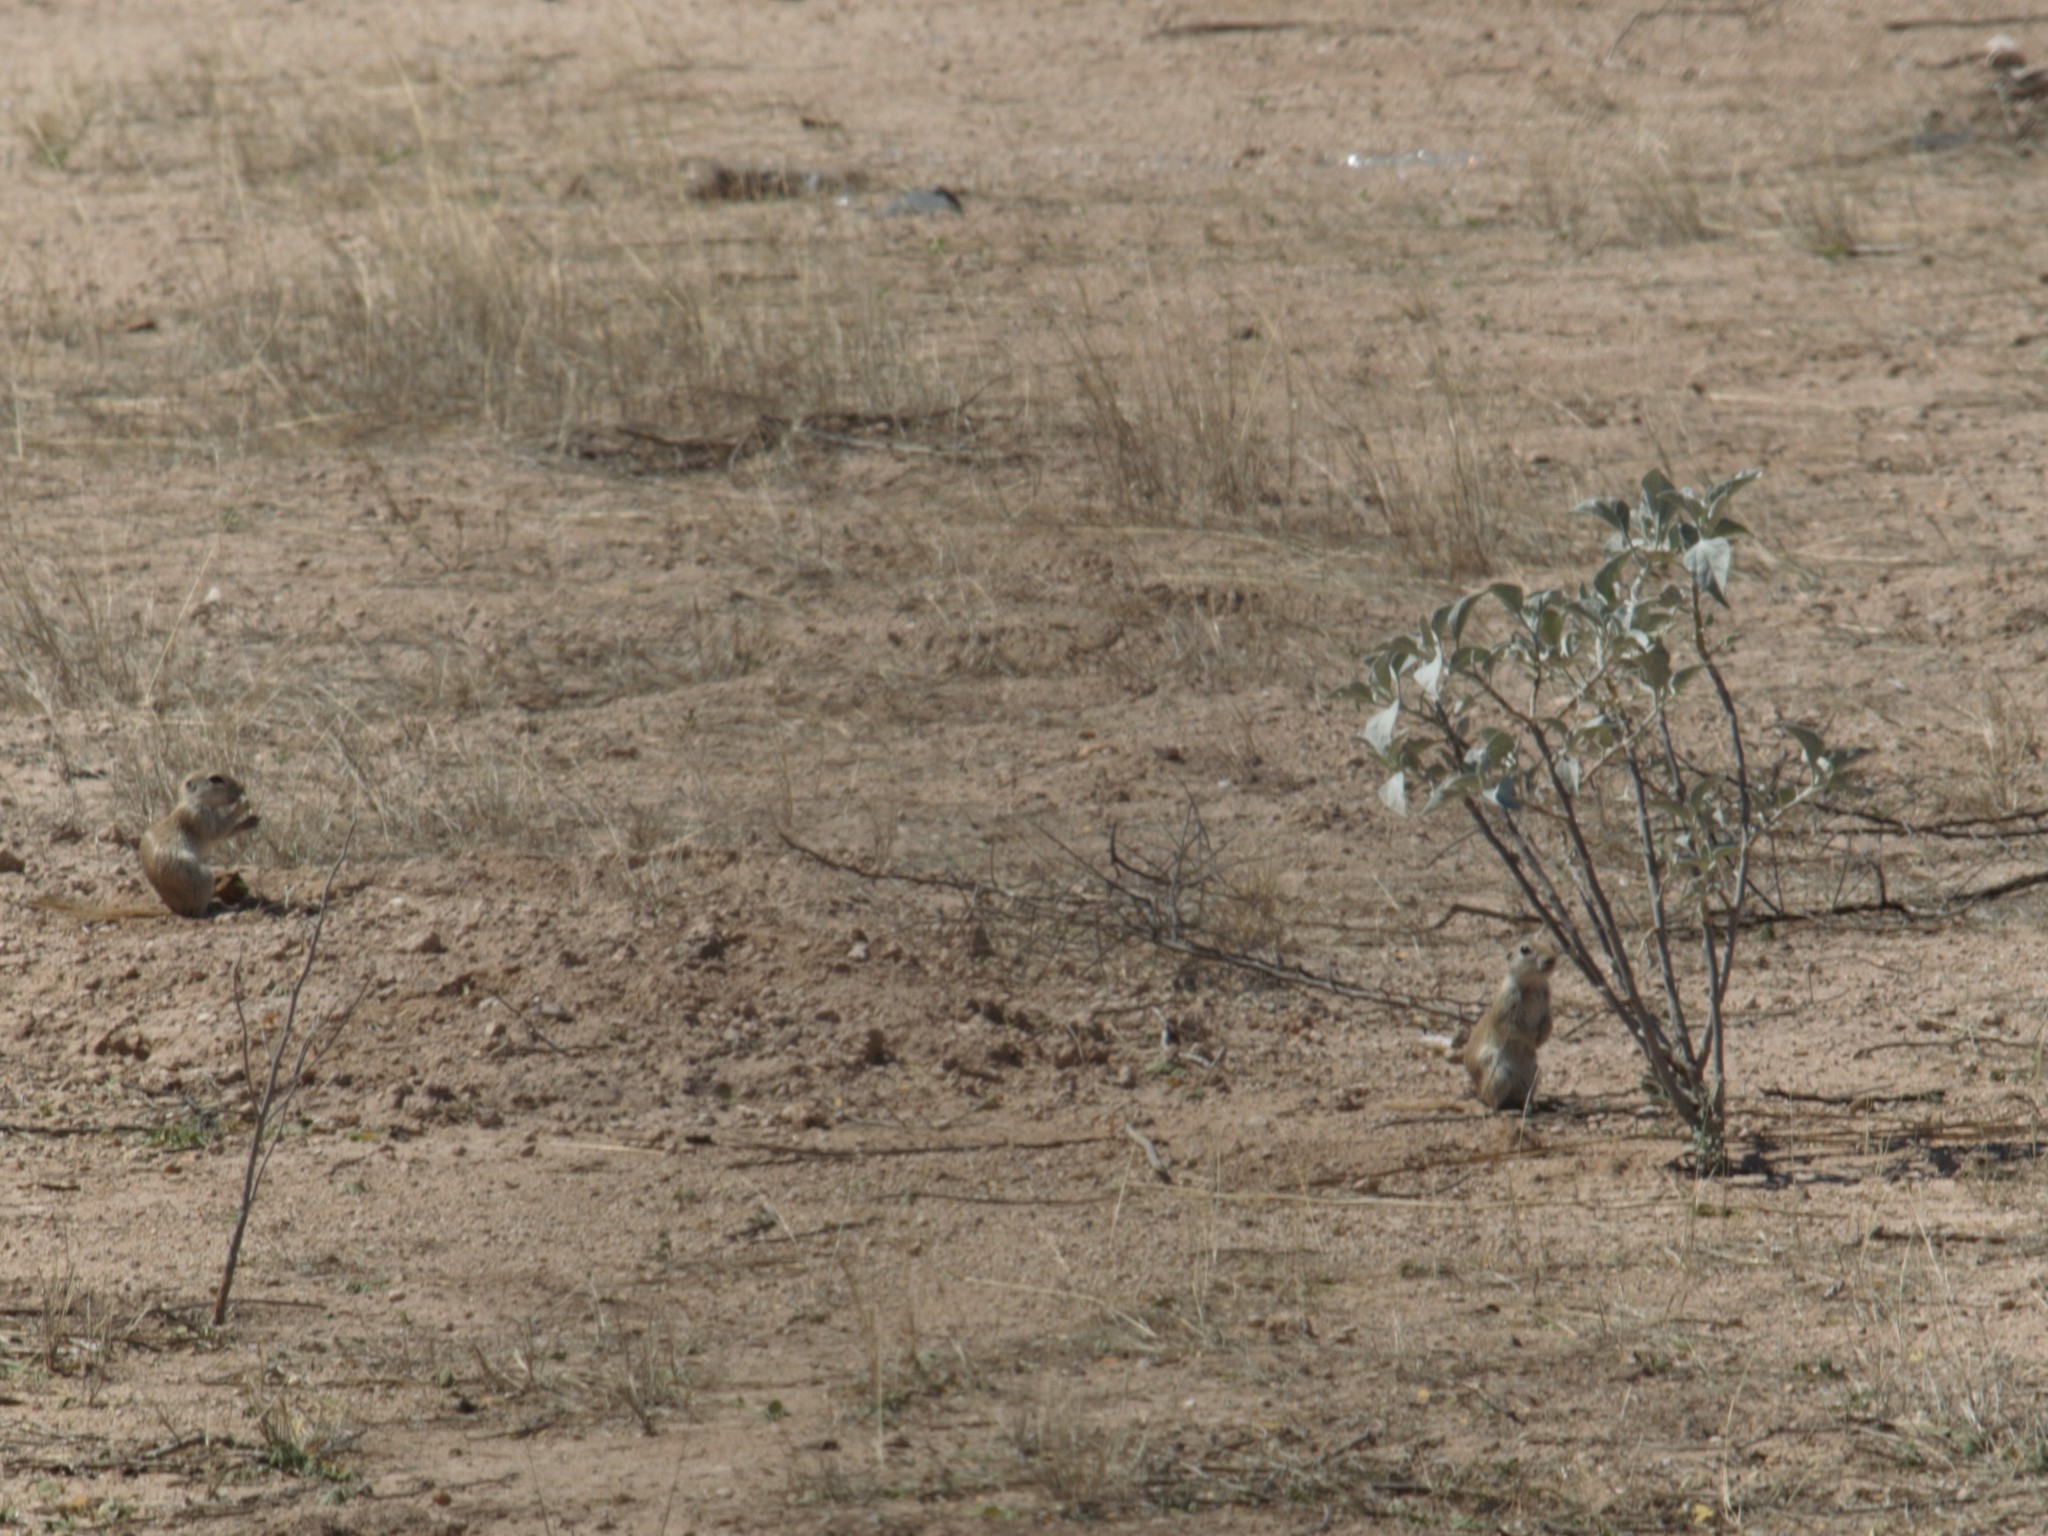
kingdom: Animalia
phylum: Chordata
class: Mammalia
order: Rodentia
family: Sciuridae
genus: Xerospermophilus
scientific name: Xerospermophilus tereticaudus
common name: Round-tailed ground squirrel
